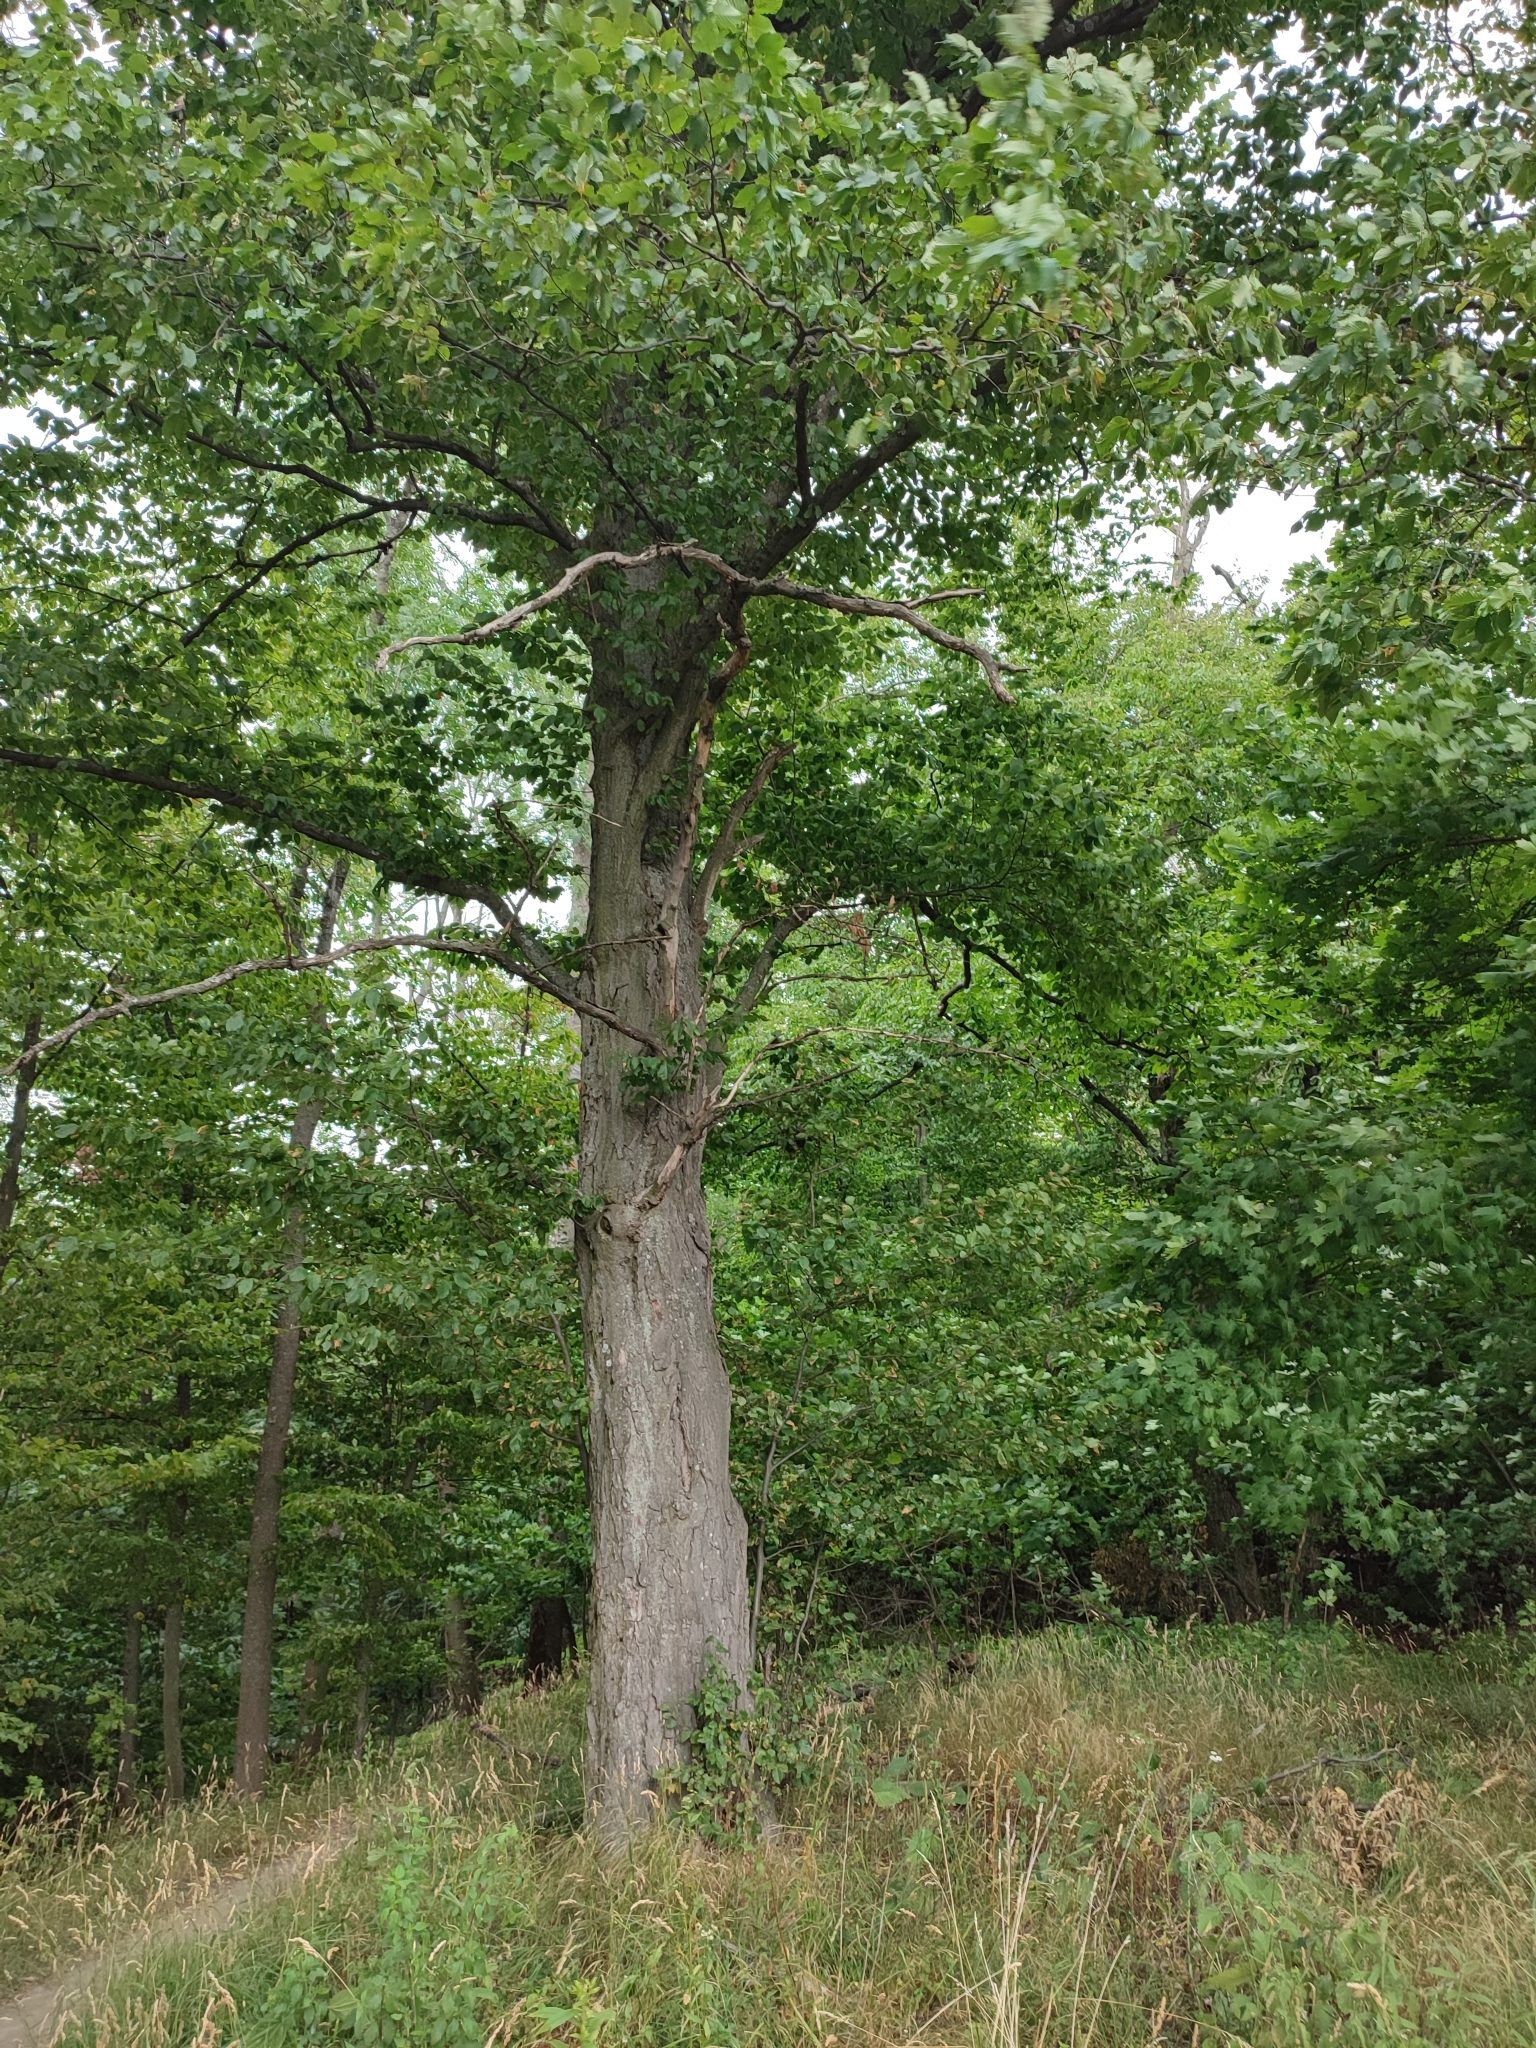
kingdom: Plantae
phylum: Tracheophyta
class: Magnoliopsida
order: Fagales
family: Betulaceae
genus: Carpinus
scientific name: Carpinus betulus
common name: Hornbeam
